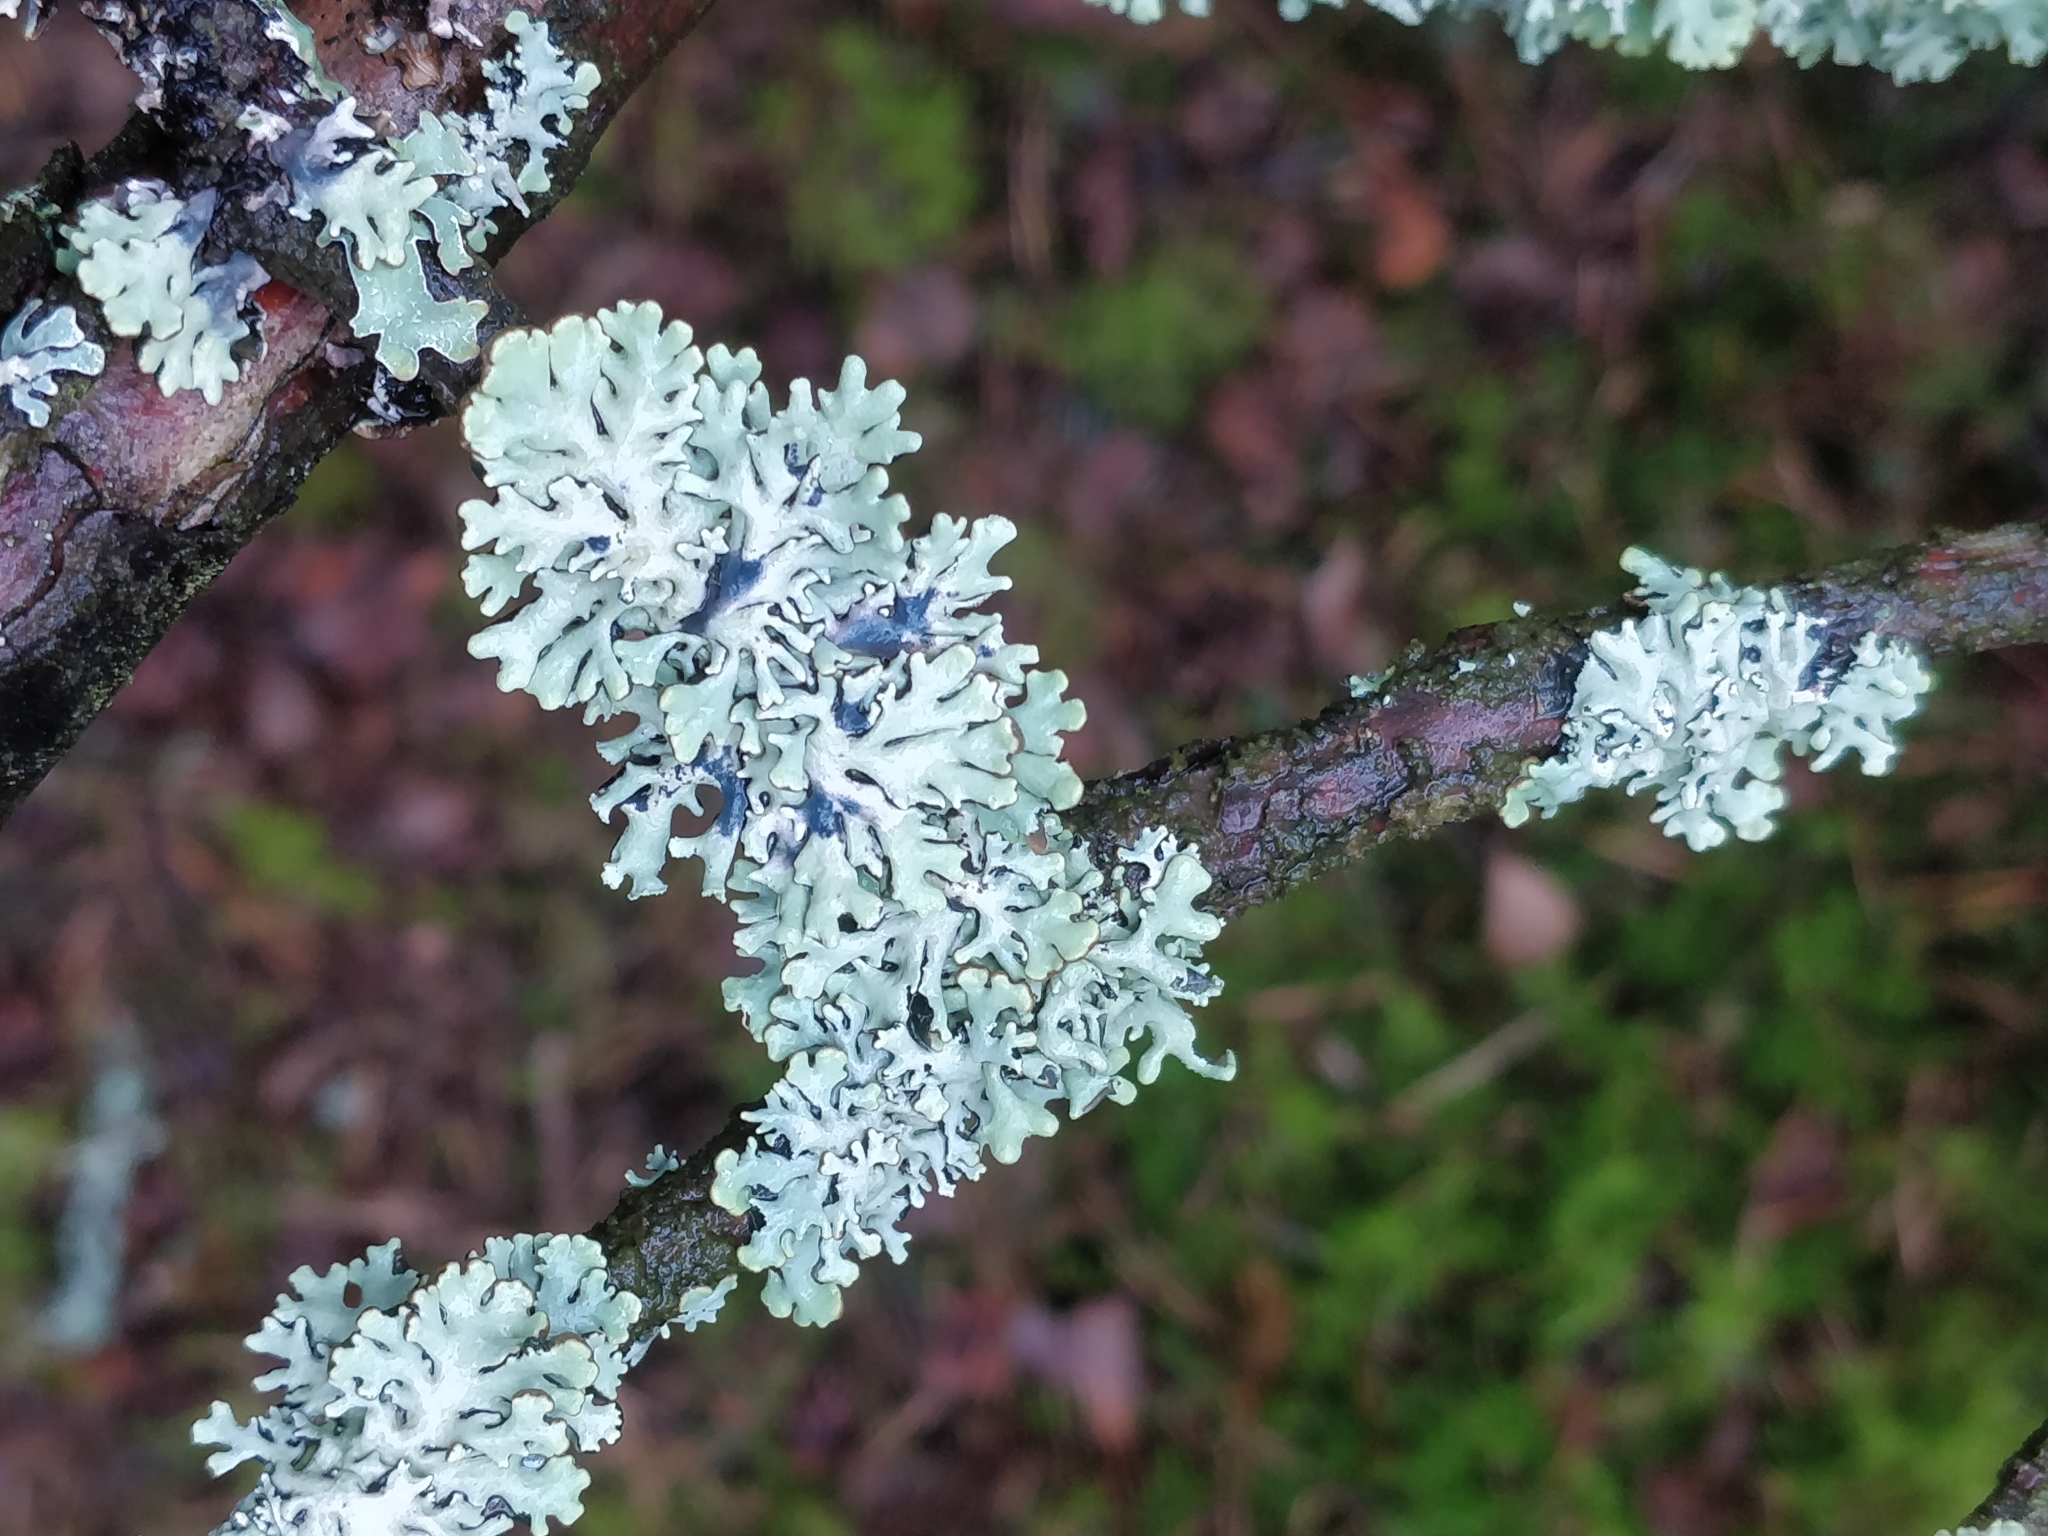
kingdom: Fungi
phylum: Ascomycota
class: Lecanoromycetes
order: Lecanorales
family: Parmeliaceae
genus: Hypogymnia
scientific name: Hypogymnia physodes
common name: Dark crottle
